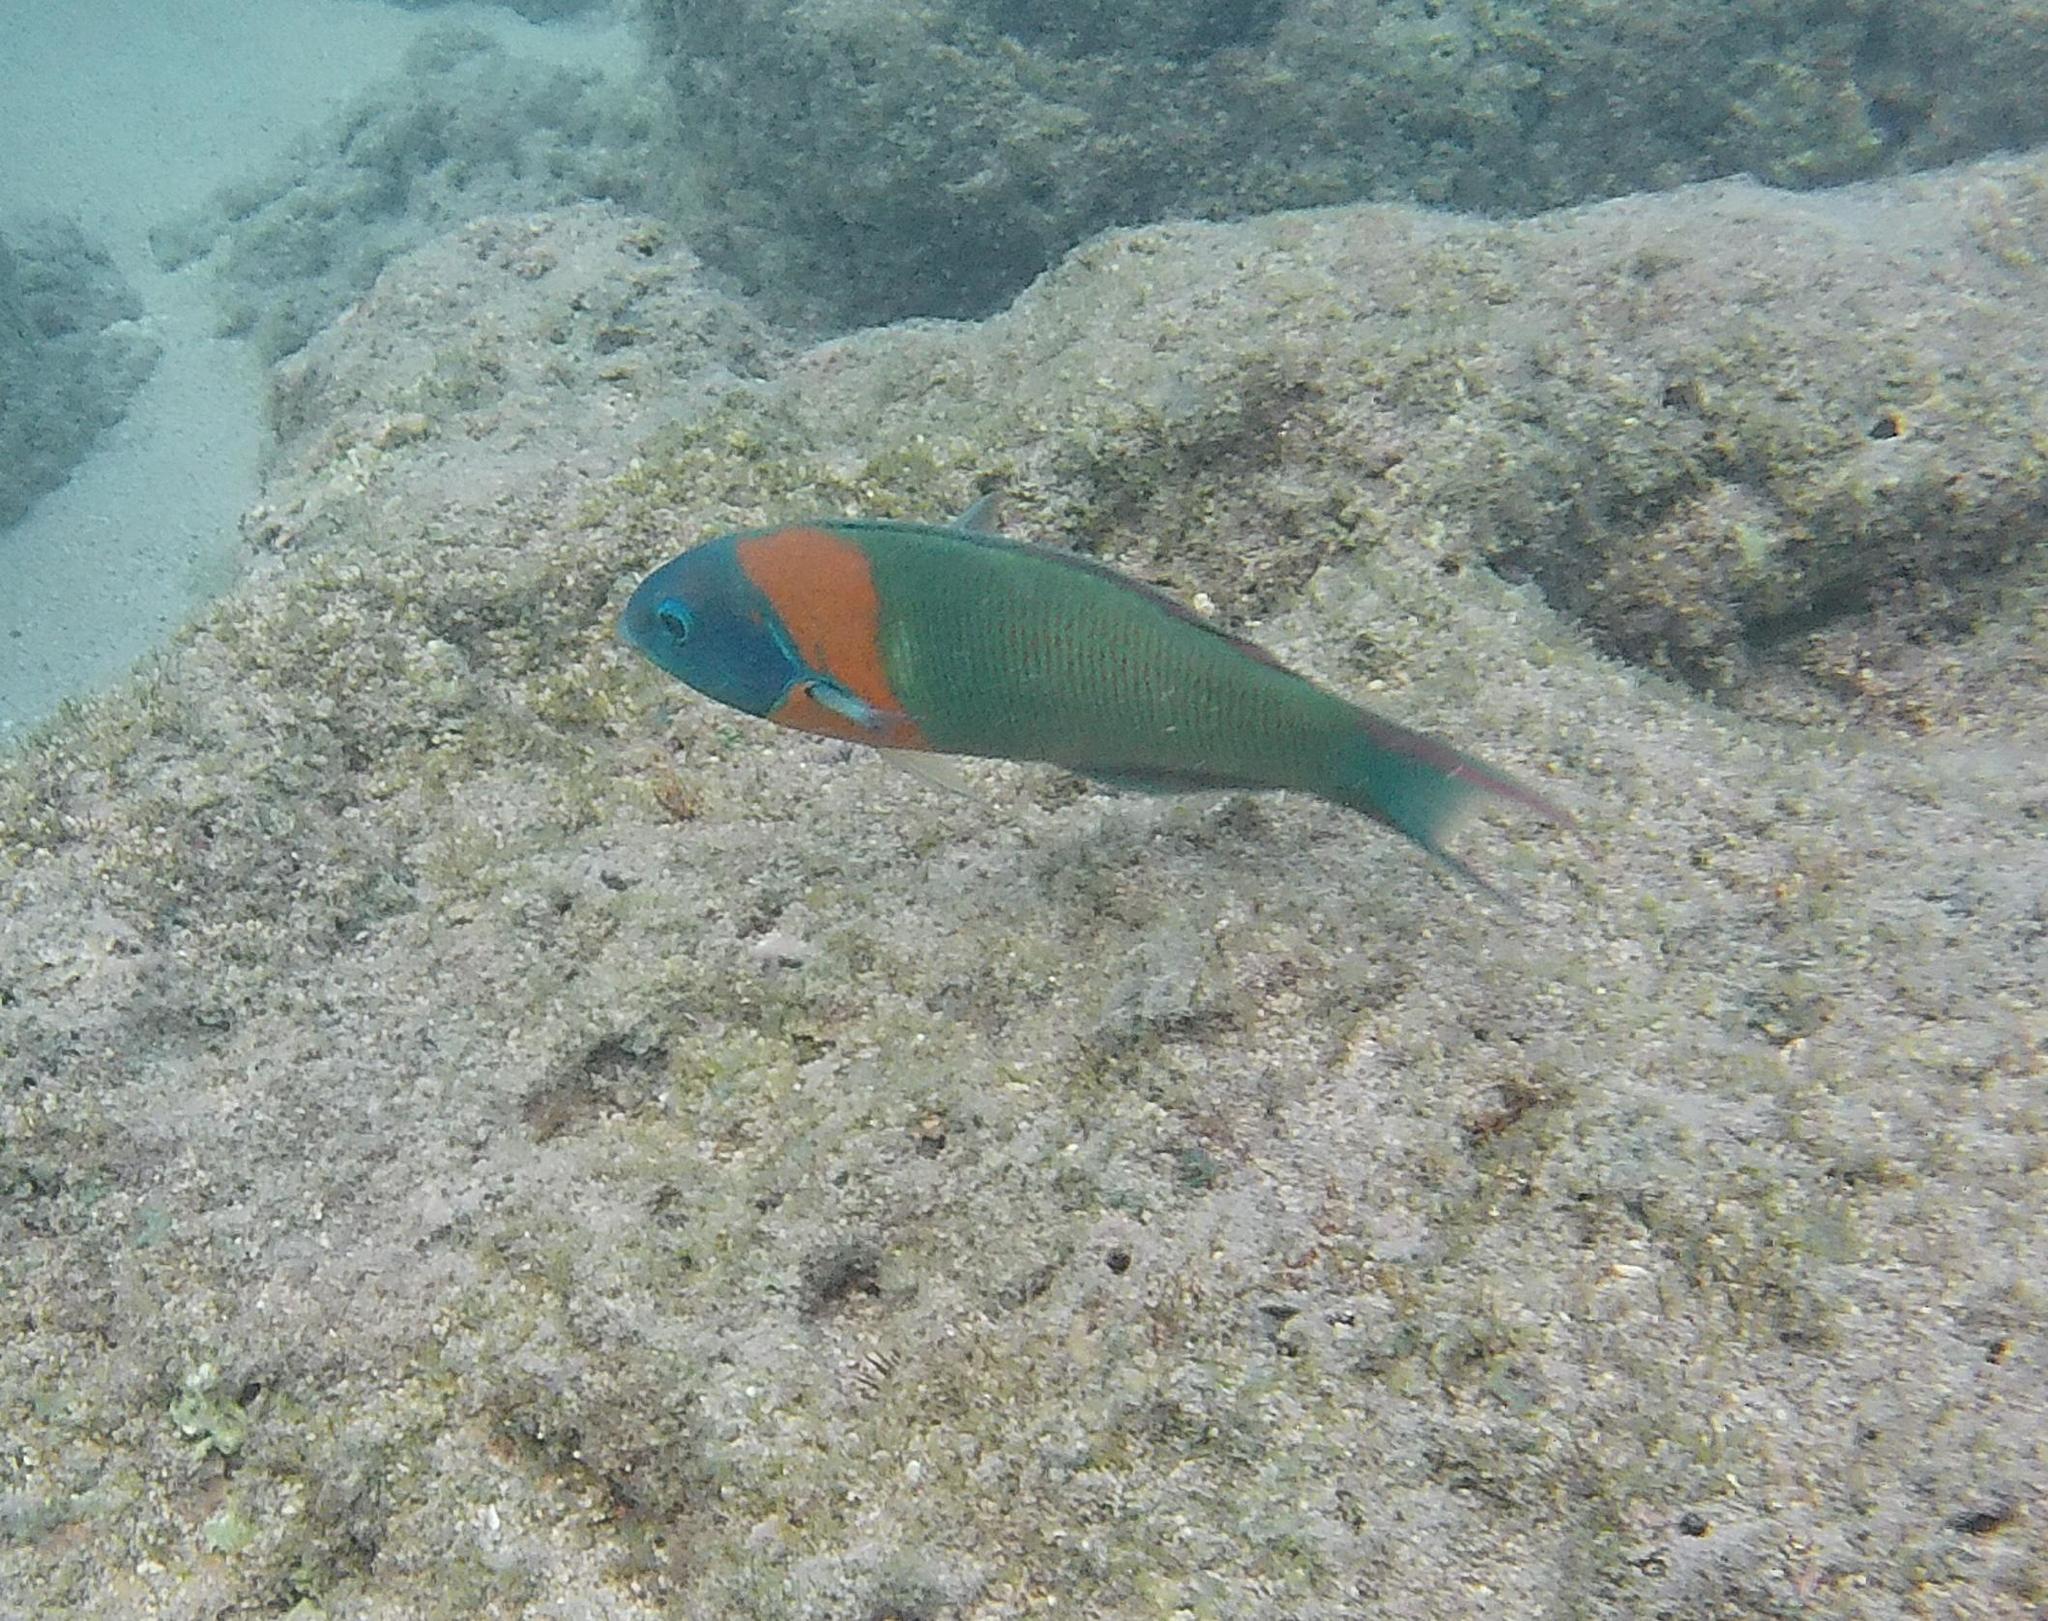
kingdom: Animalia
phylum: Chordata
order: Perciformes
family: Labridae
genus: Thalassoma
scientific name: Thalassoma duperrey
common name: Saddle wrasse
